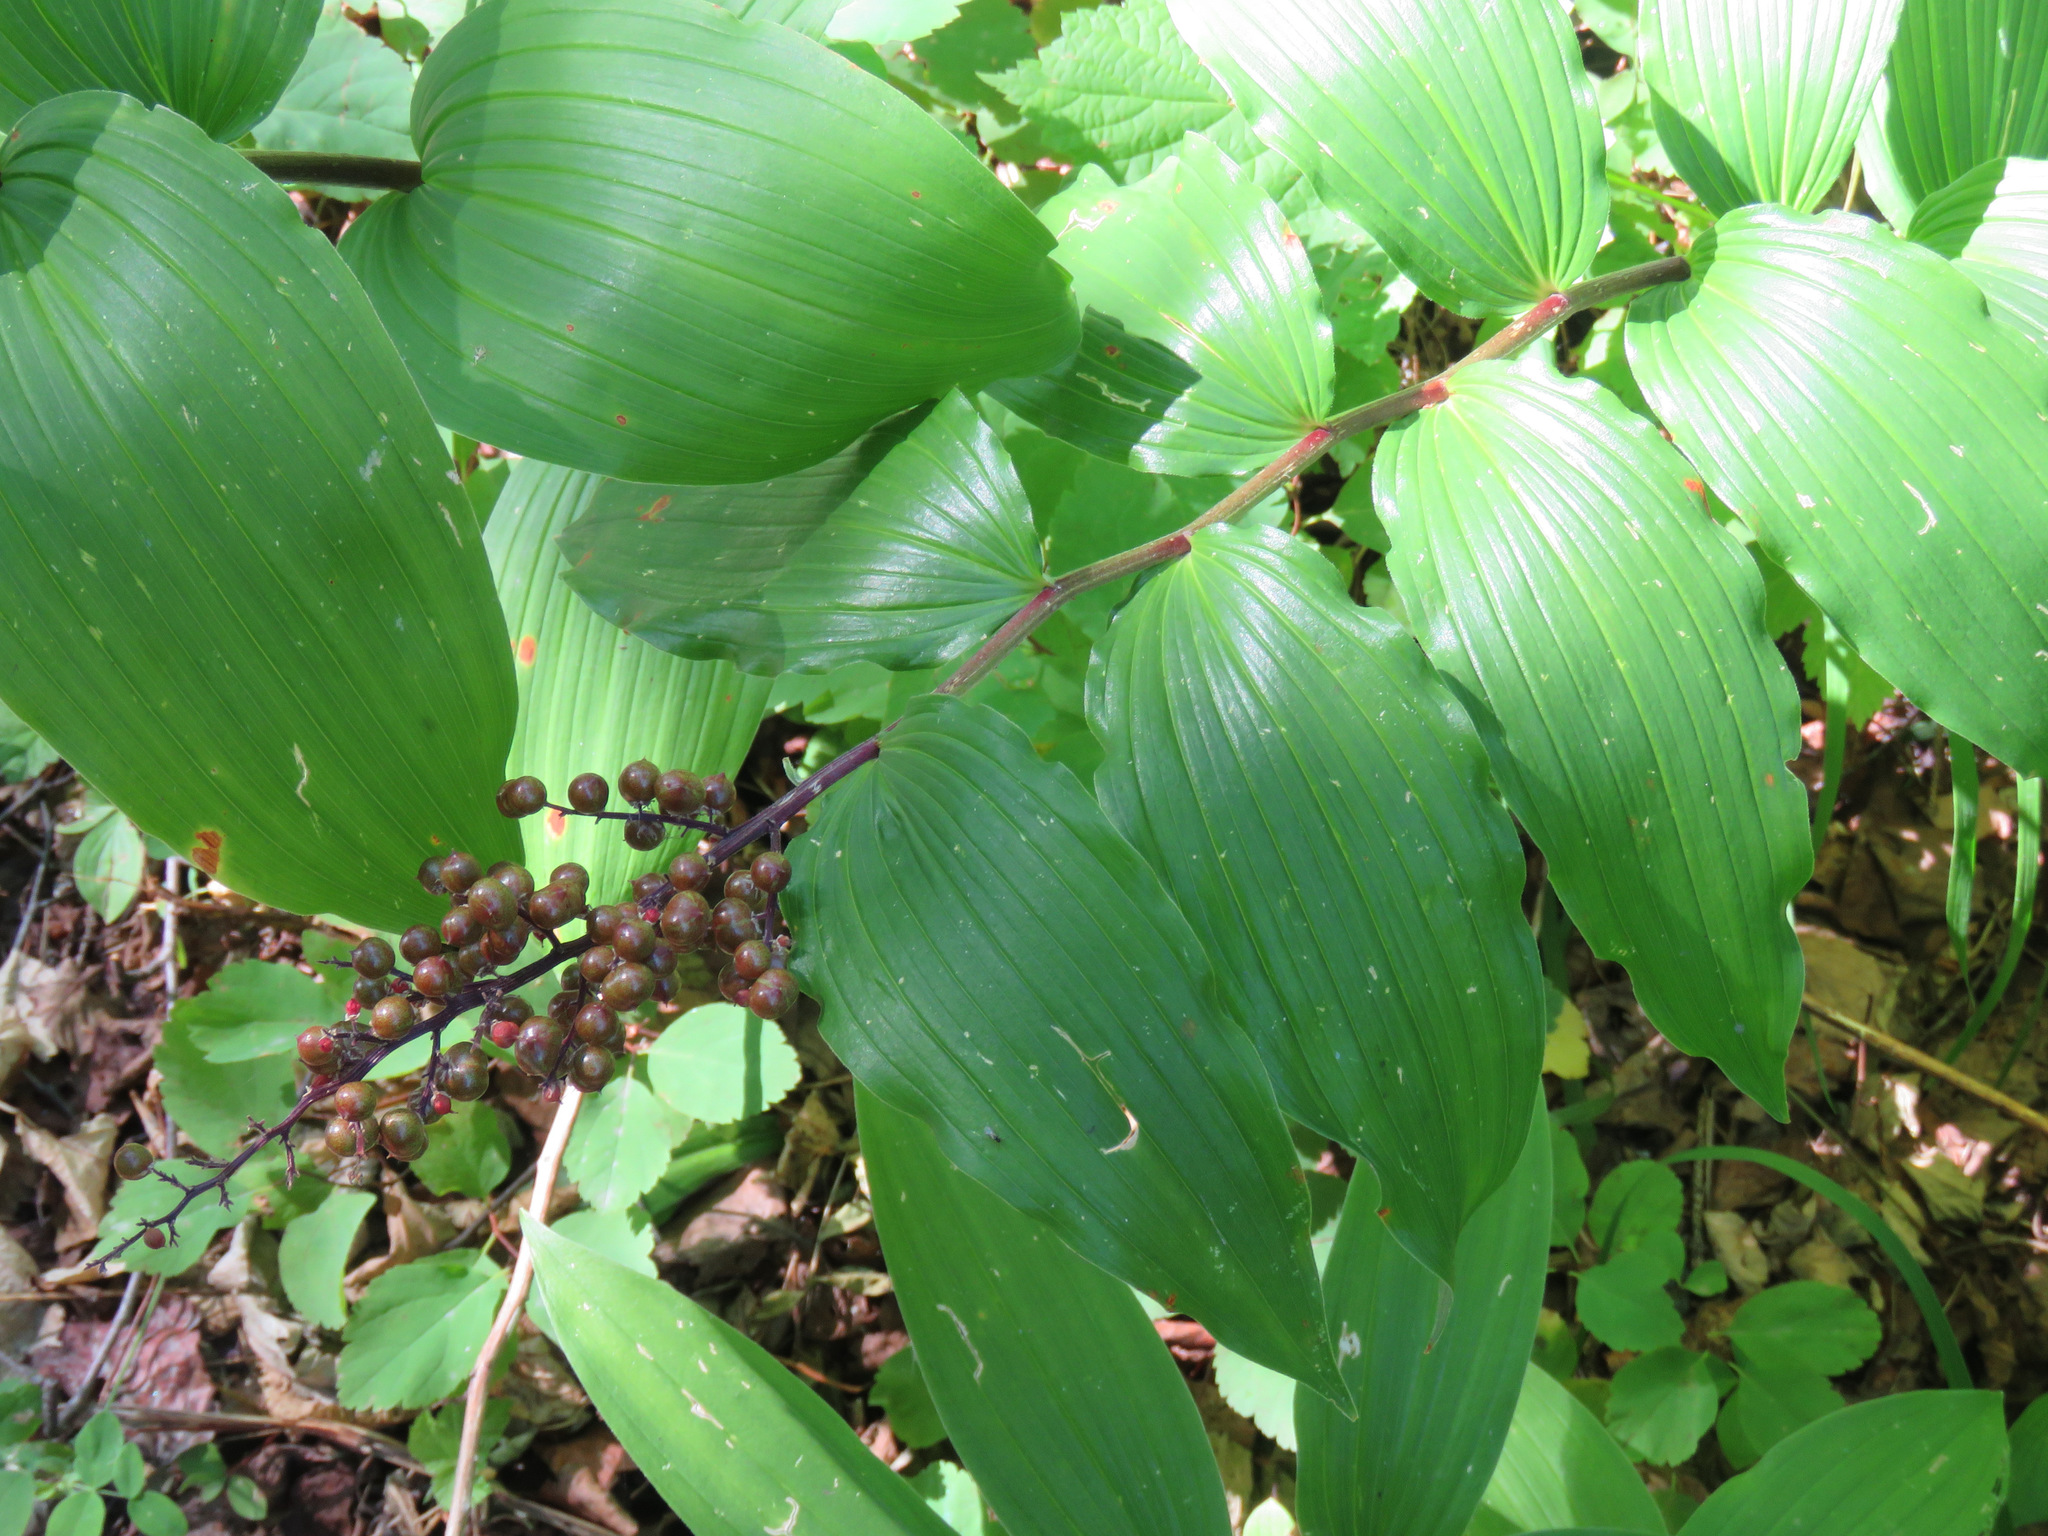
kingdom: Plantae
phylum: Tracheophyta
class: Liliopsida
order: Asparagales
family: Asparagaceae
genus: Maianthemum
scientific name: Maianthemum racemosum
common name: False spikenard
